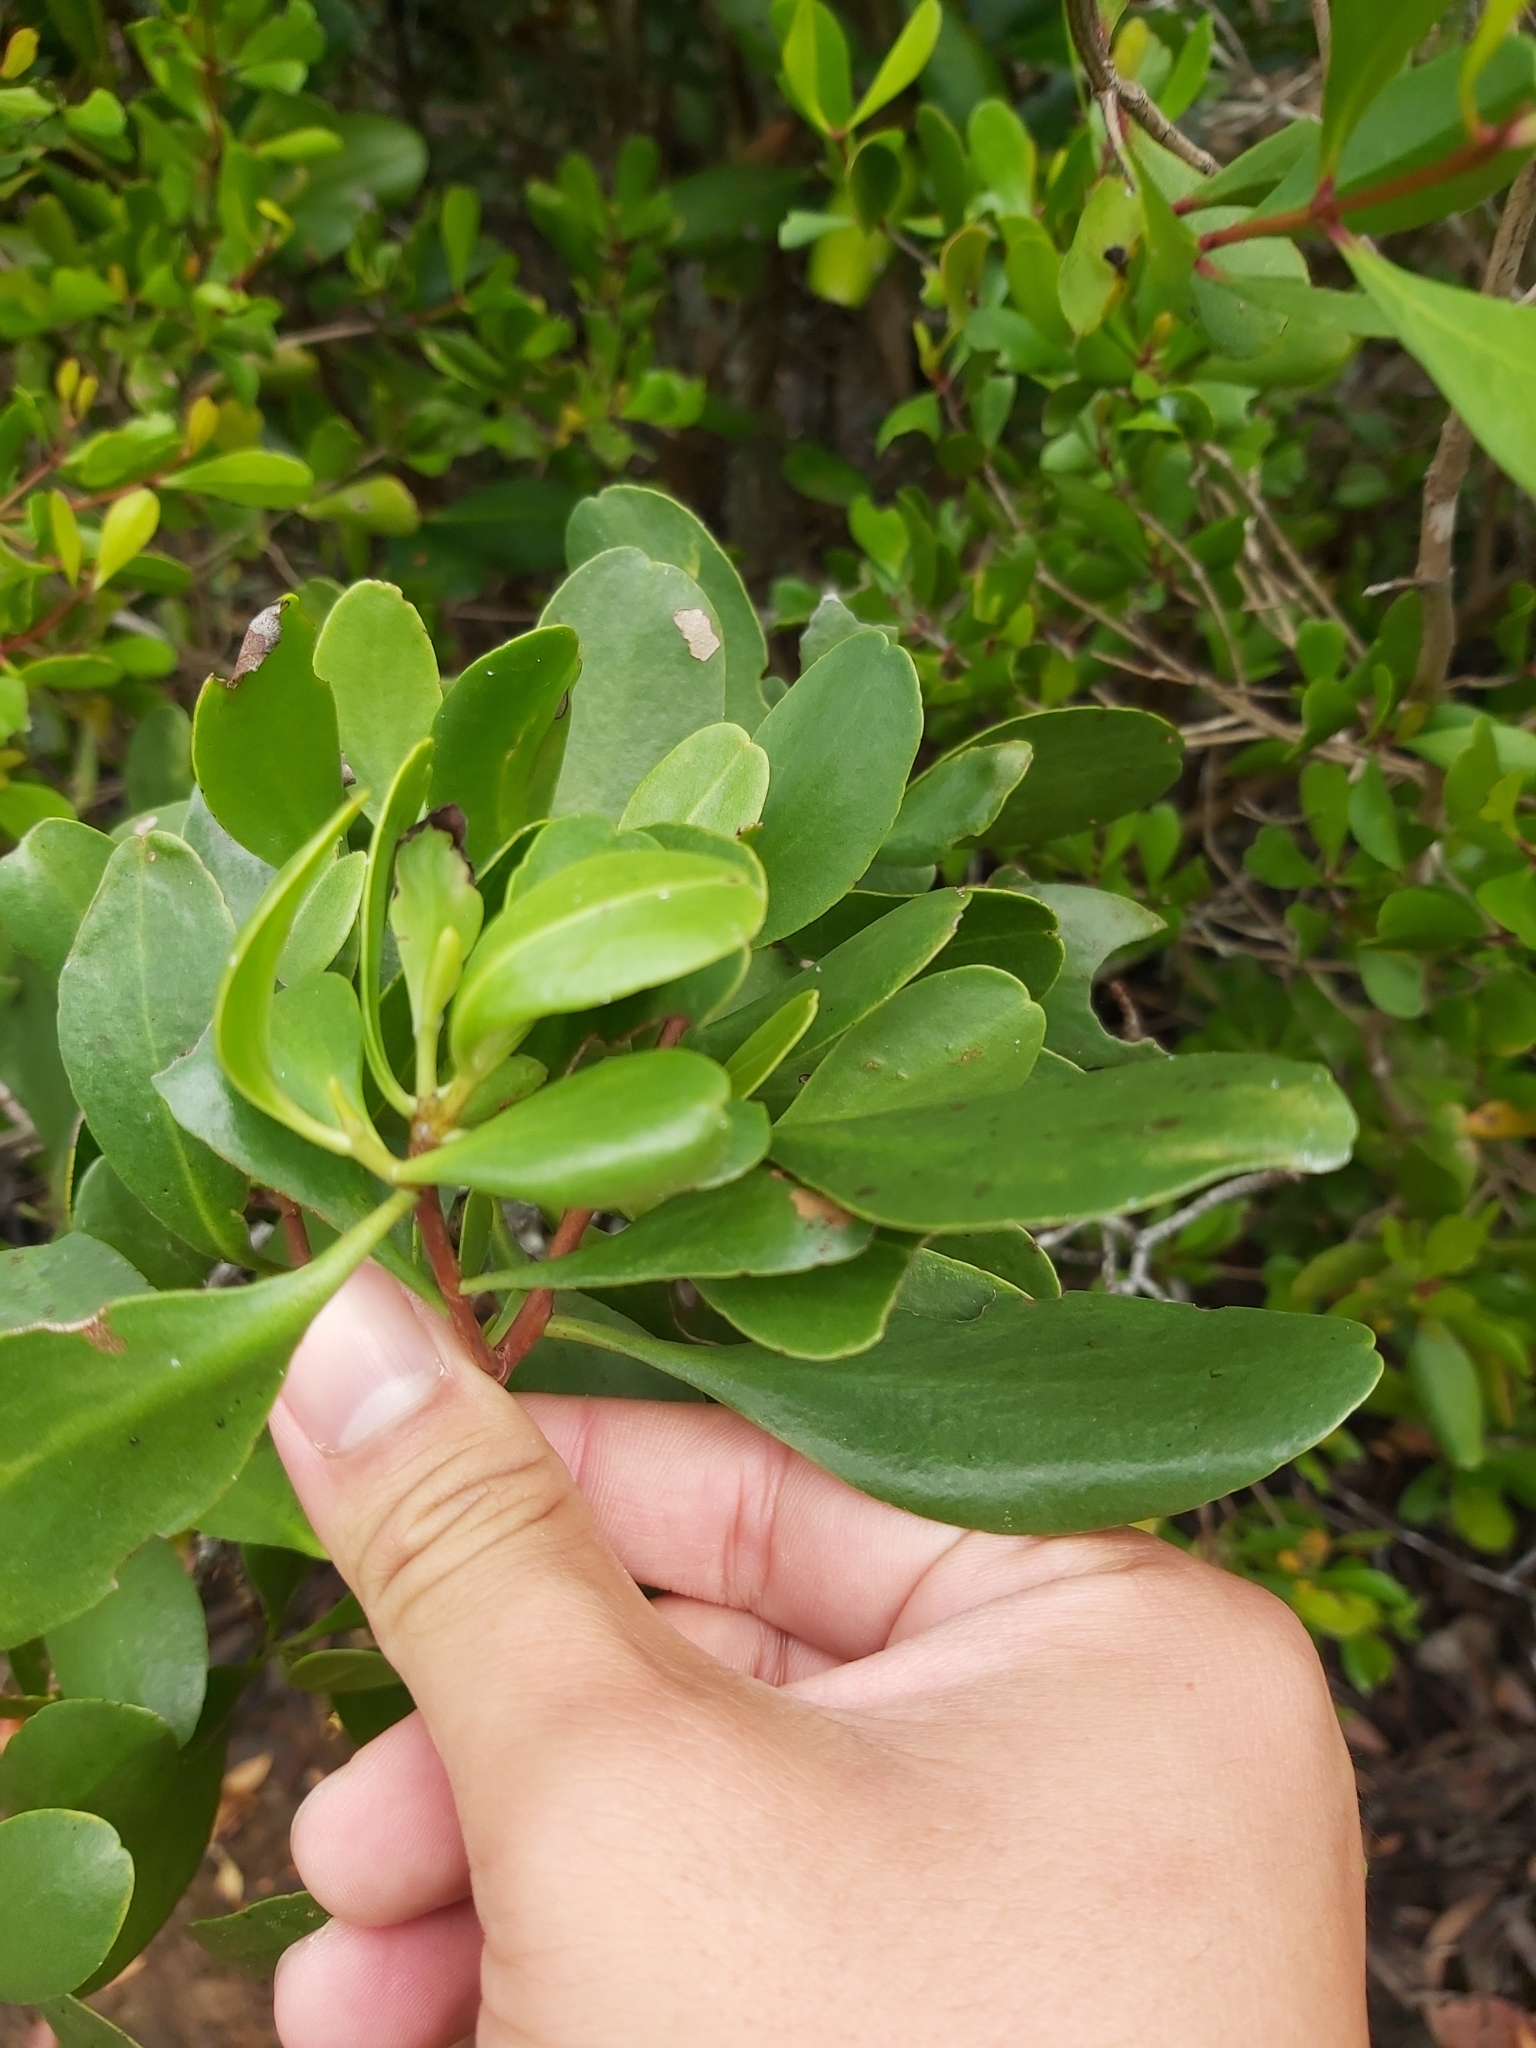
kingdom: Plantae
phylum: Tracheophyta
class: Magnoliopsida
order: Myrtales
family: Combretaceae
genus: Lumnitzera
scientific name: Lumnitzera racemosa
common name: White-flowered black mangrove
